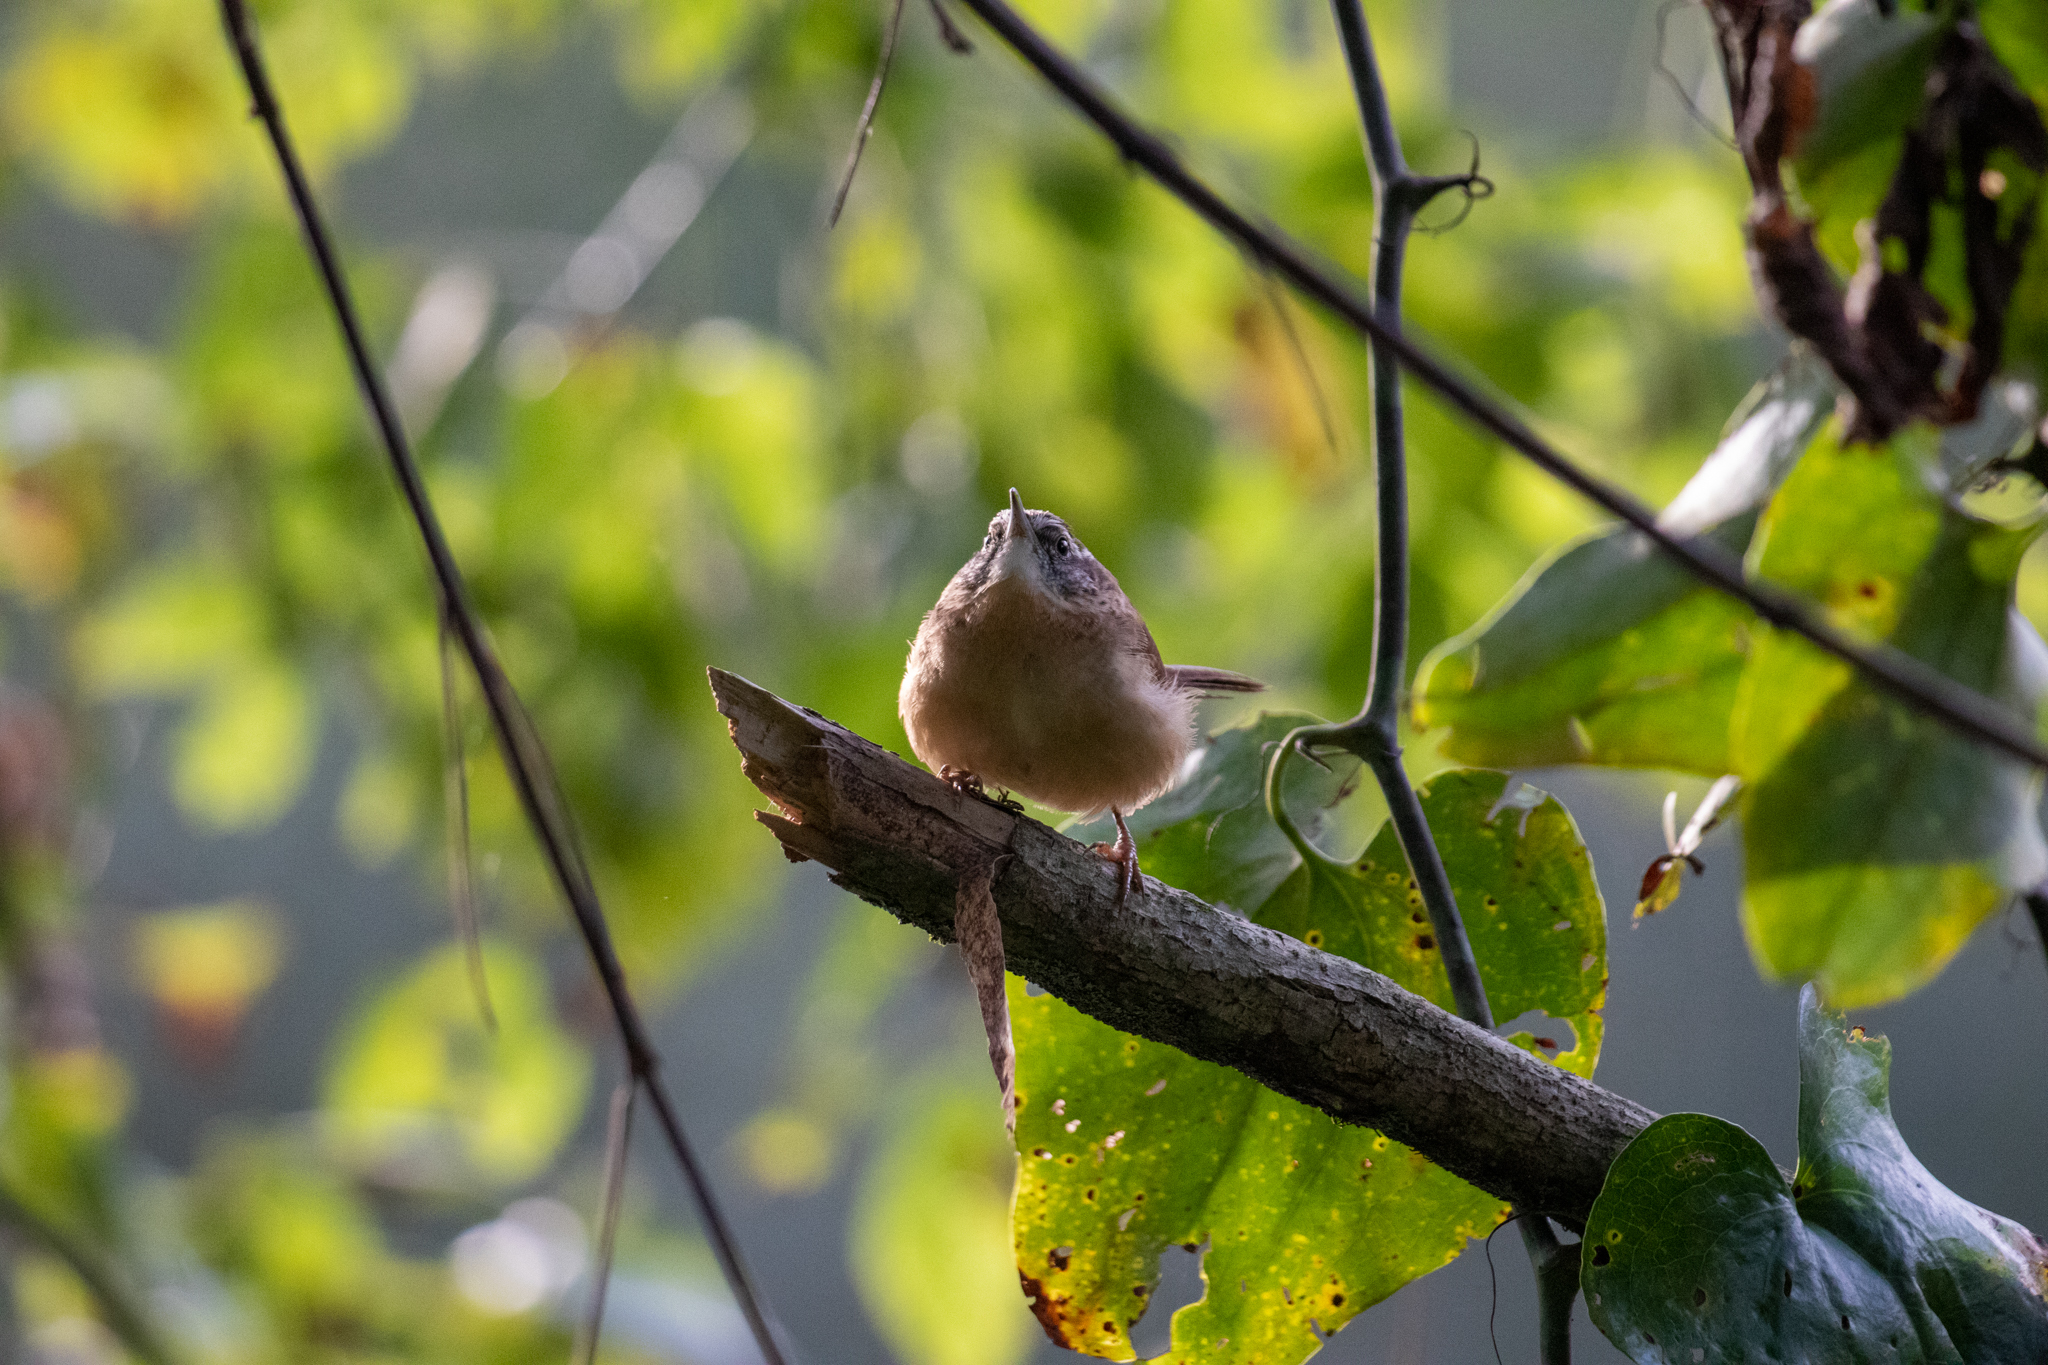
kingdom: Animalia
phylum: Chordata
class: Aves
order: Passeriformes
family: Troglodytidae
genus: Thryothorus
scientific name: Thryothorus ludovicianus
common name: Carolina wren
